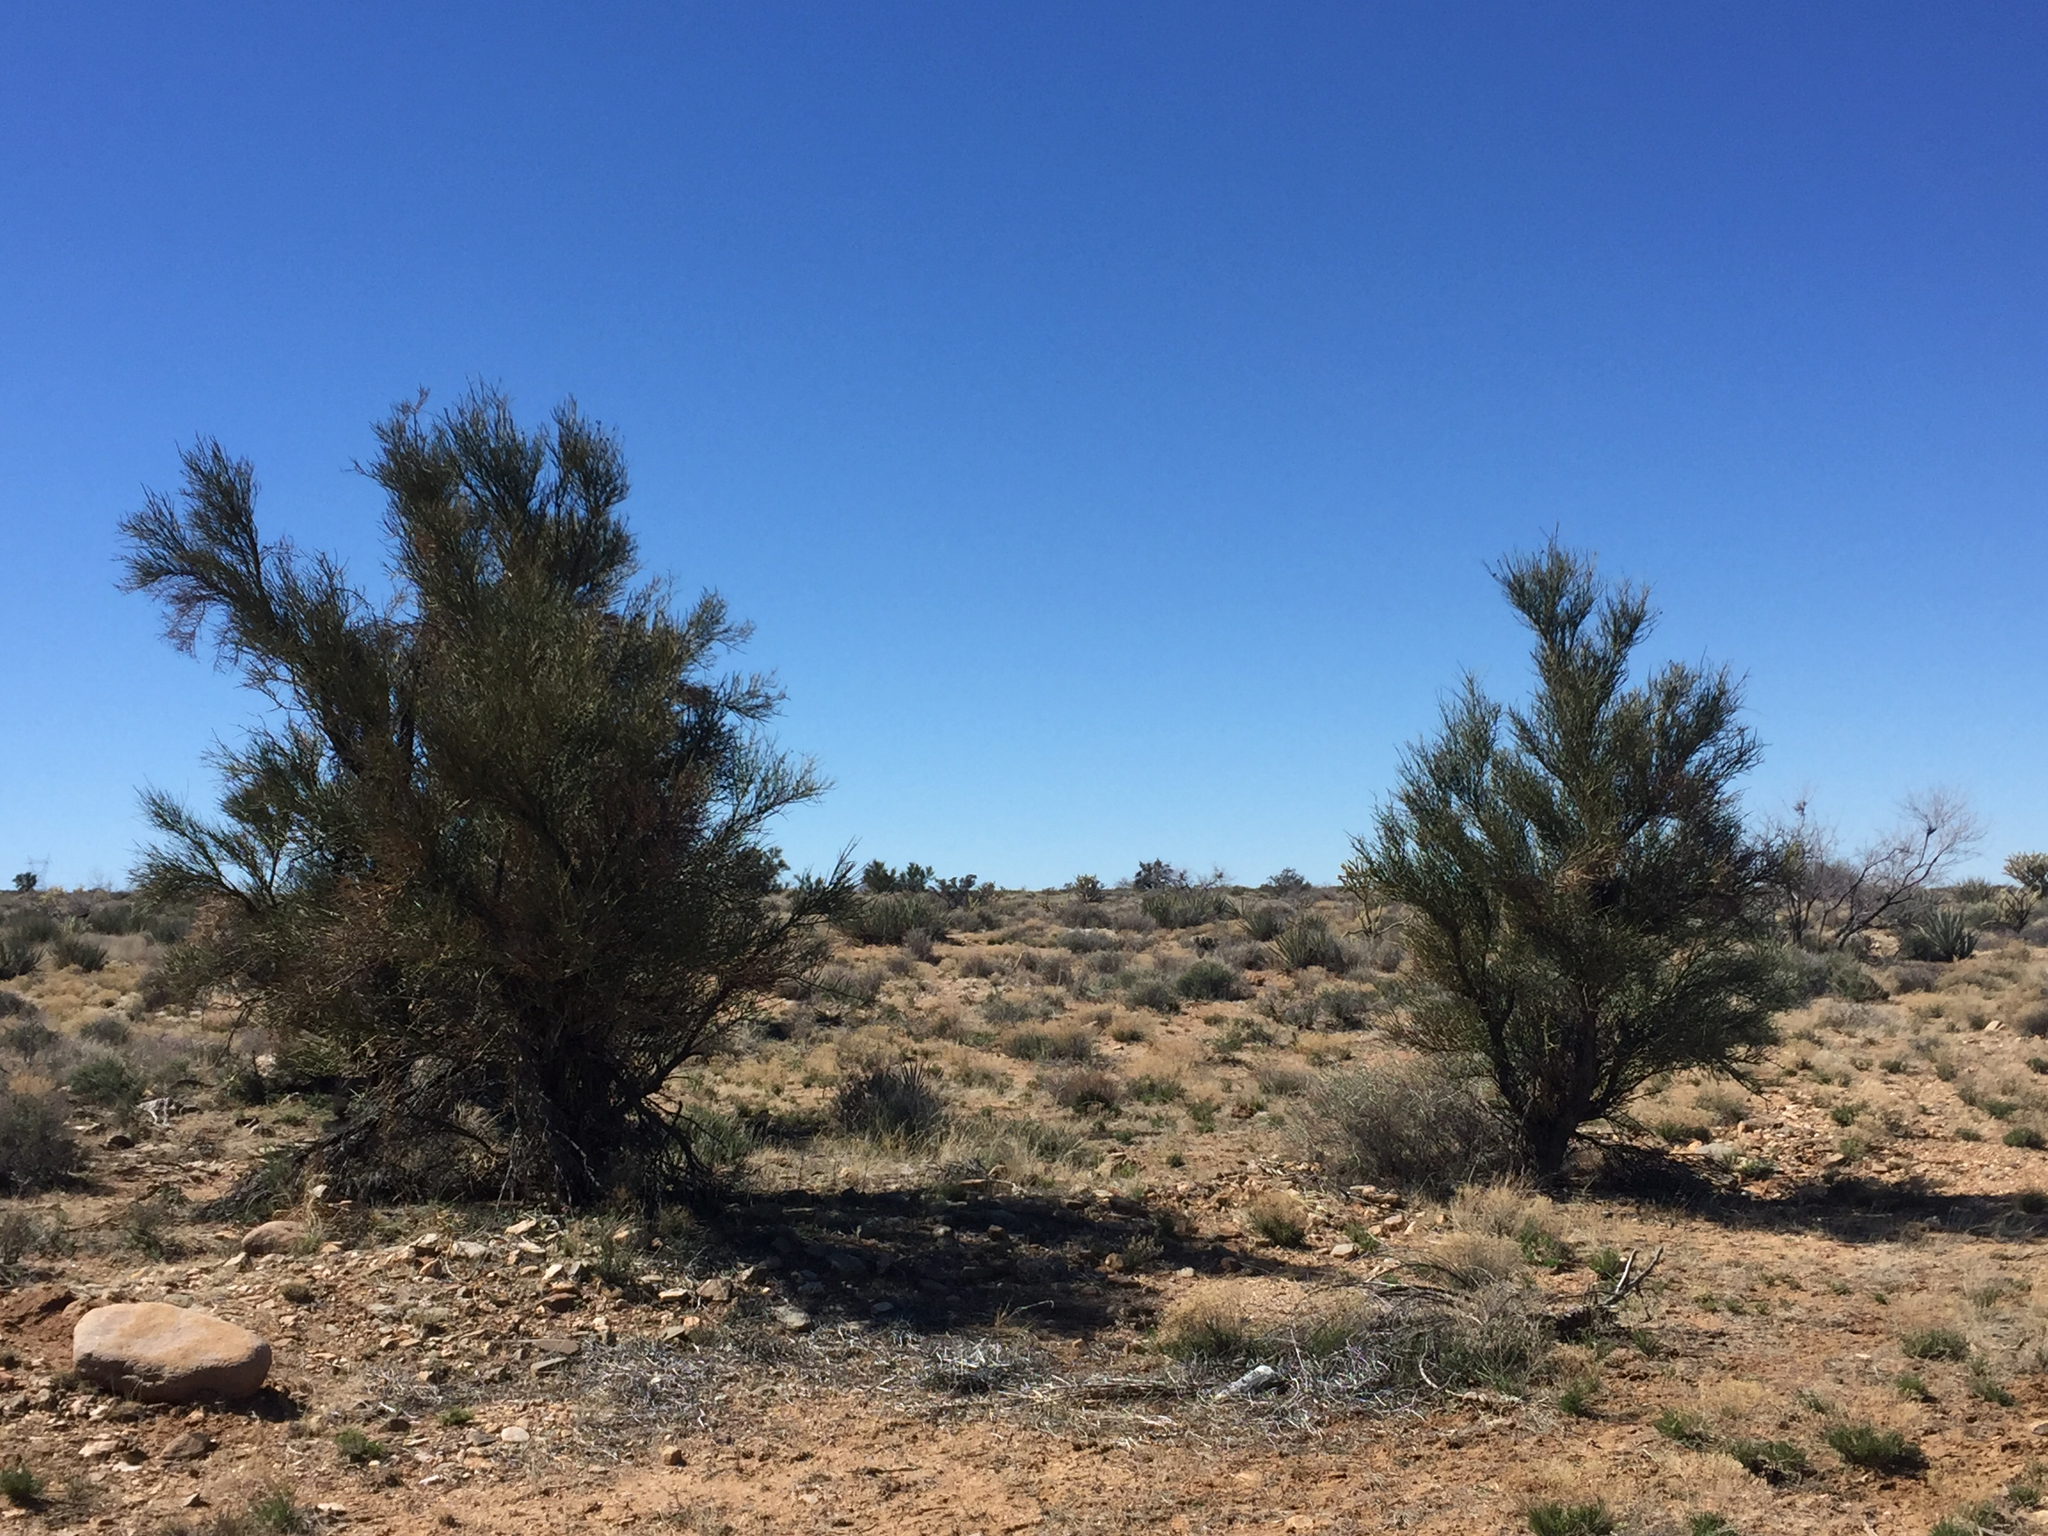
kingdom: Plantae
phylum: Tracheophyta
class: Magnoliopsida
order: Celastrales
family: Celastraceae
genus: Canotia
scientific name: Canotia holacantha
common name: Crucifixion thorns
